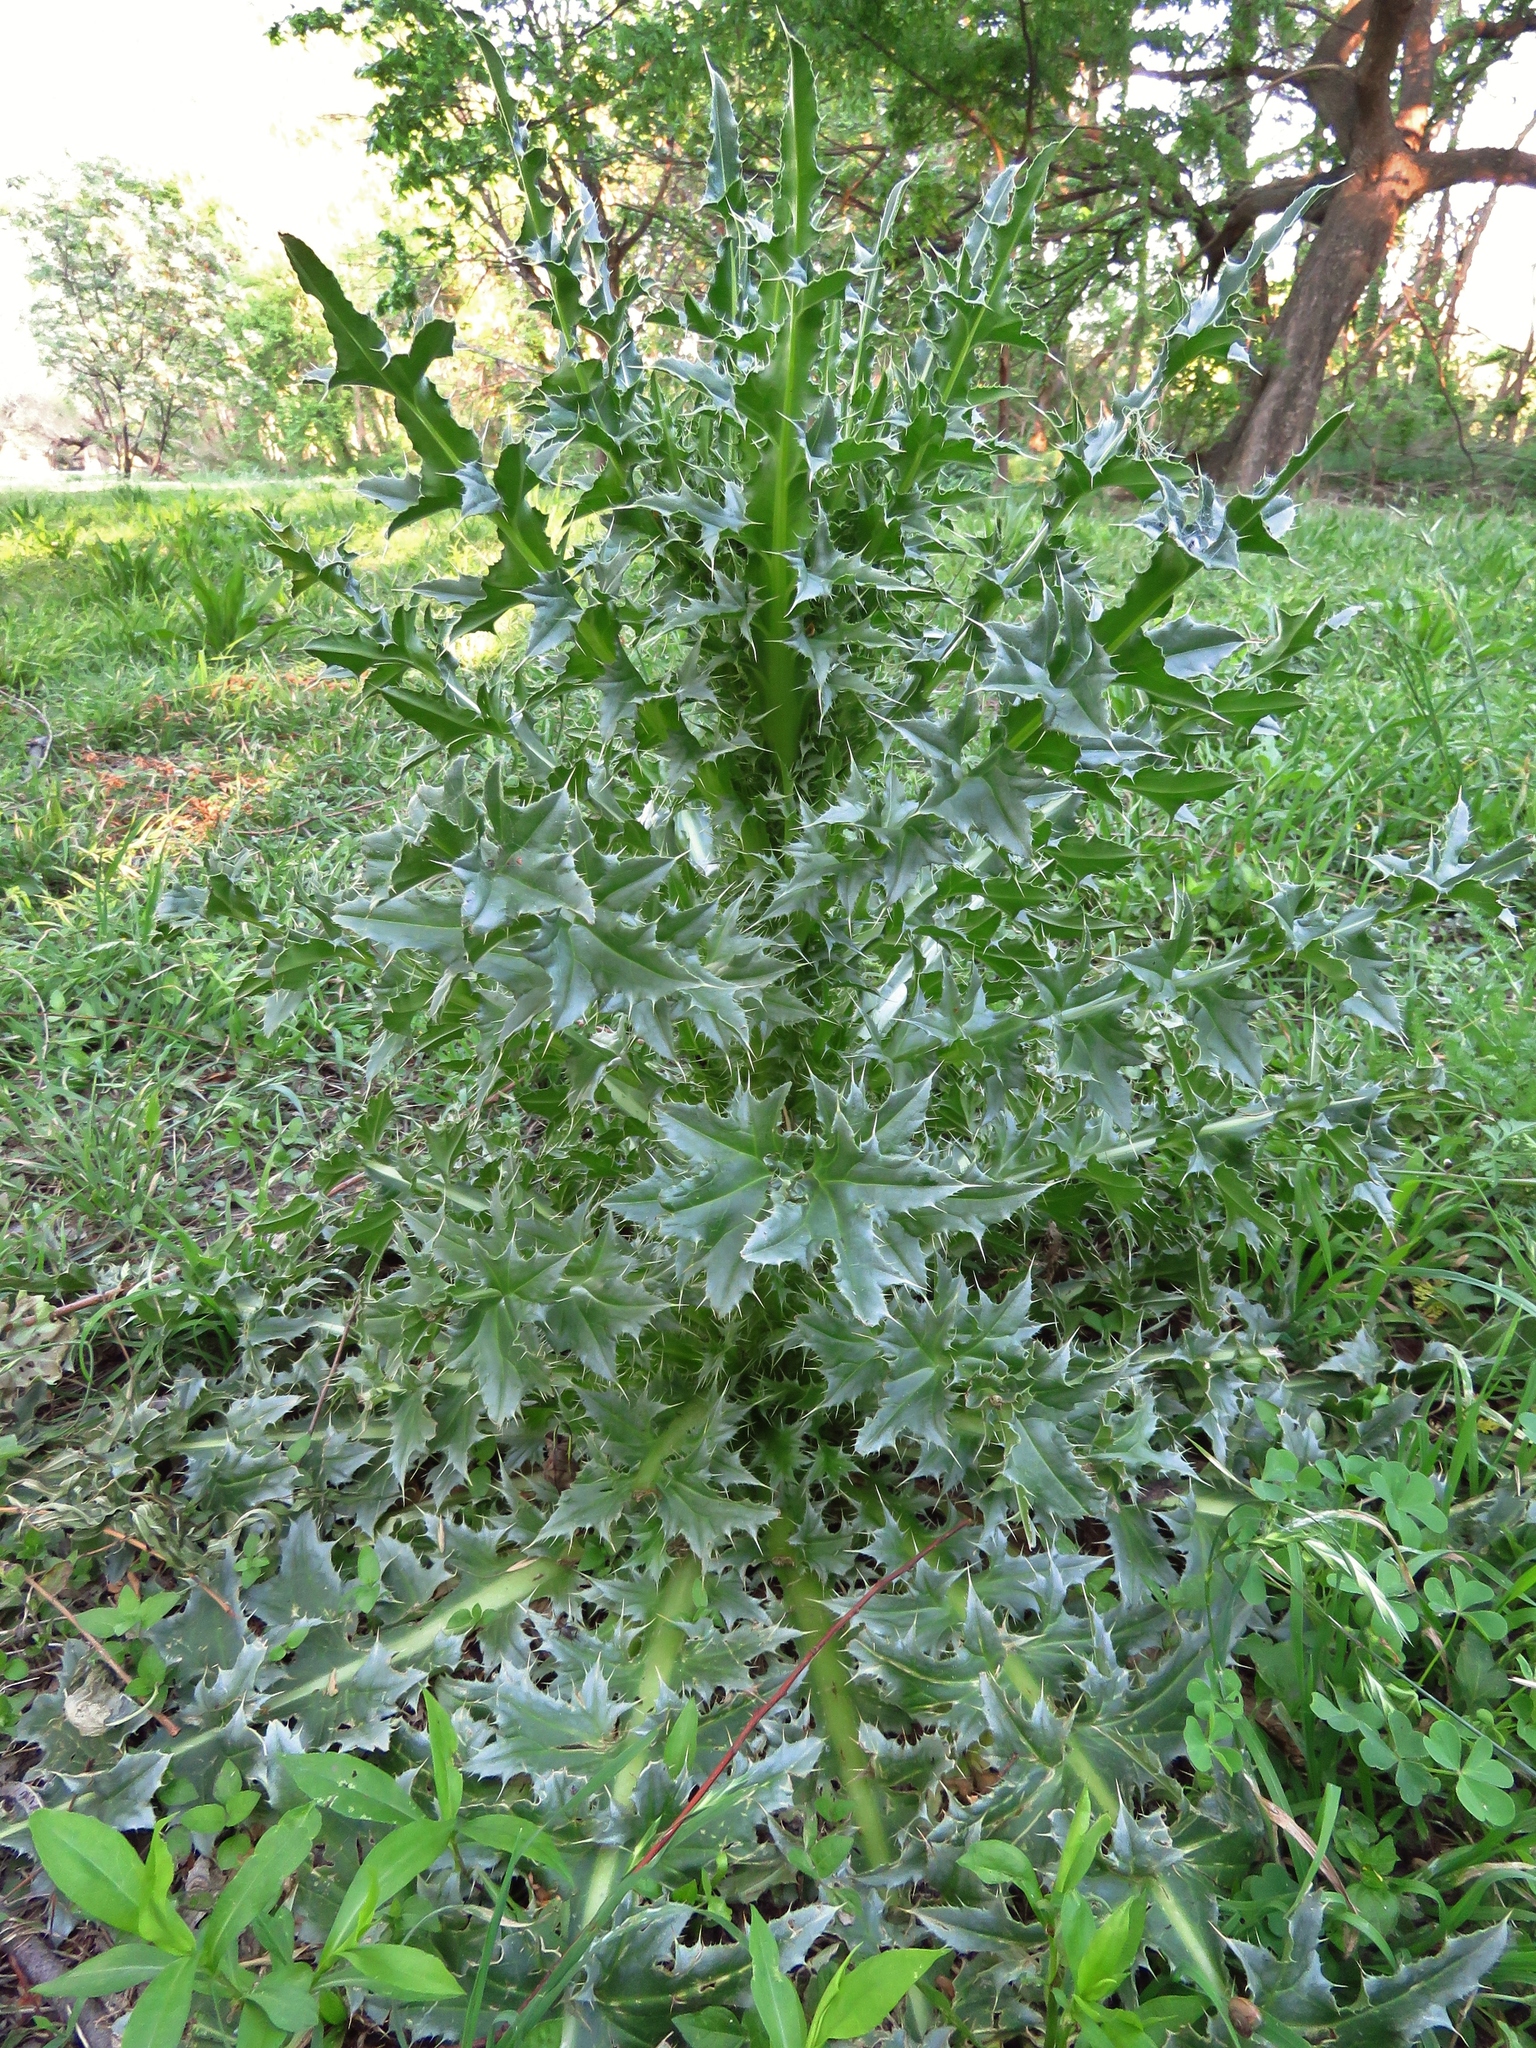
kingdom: Plantae
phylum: Tracheophyta
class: Magnoliopsida
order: Asterales
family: Asteraceae
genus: Carduus
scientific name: Carduus nutans
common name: Musk thistle
